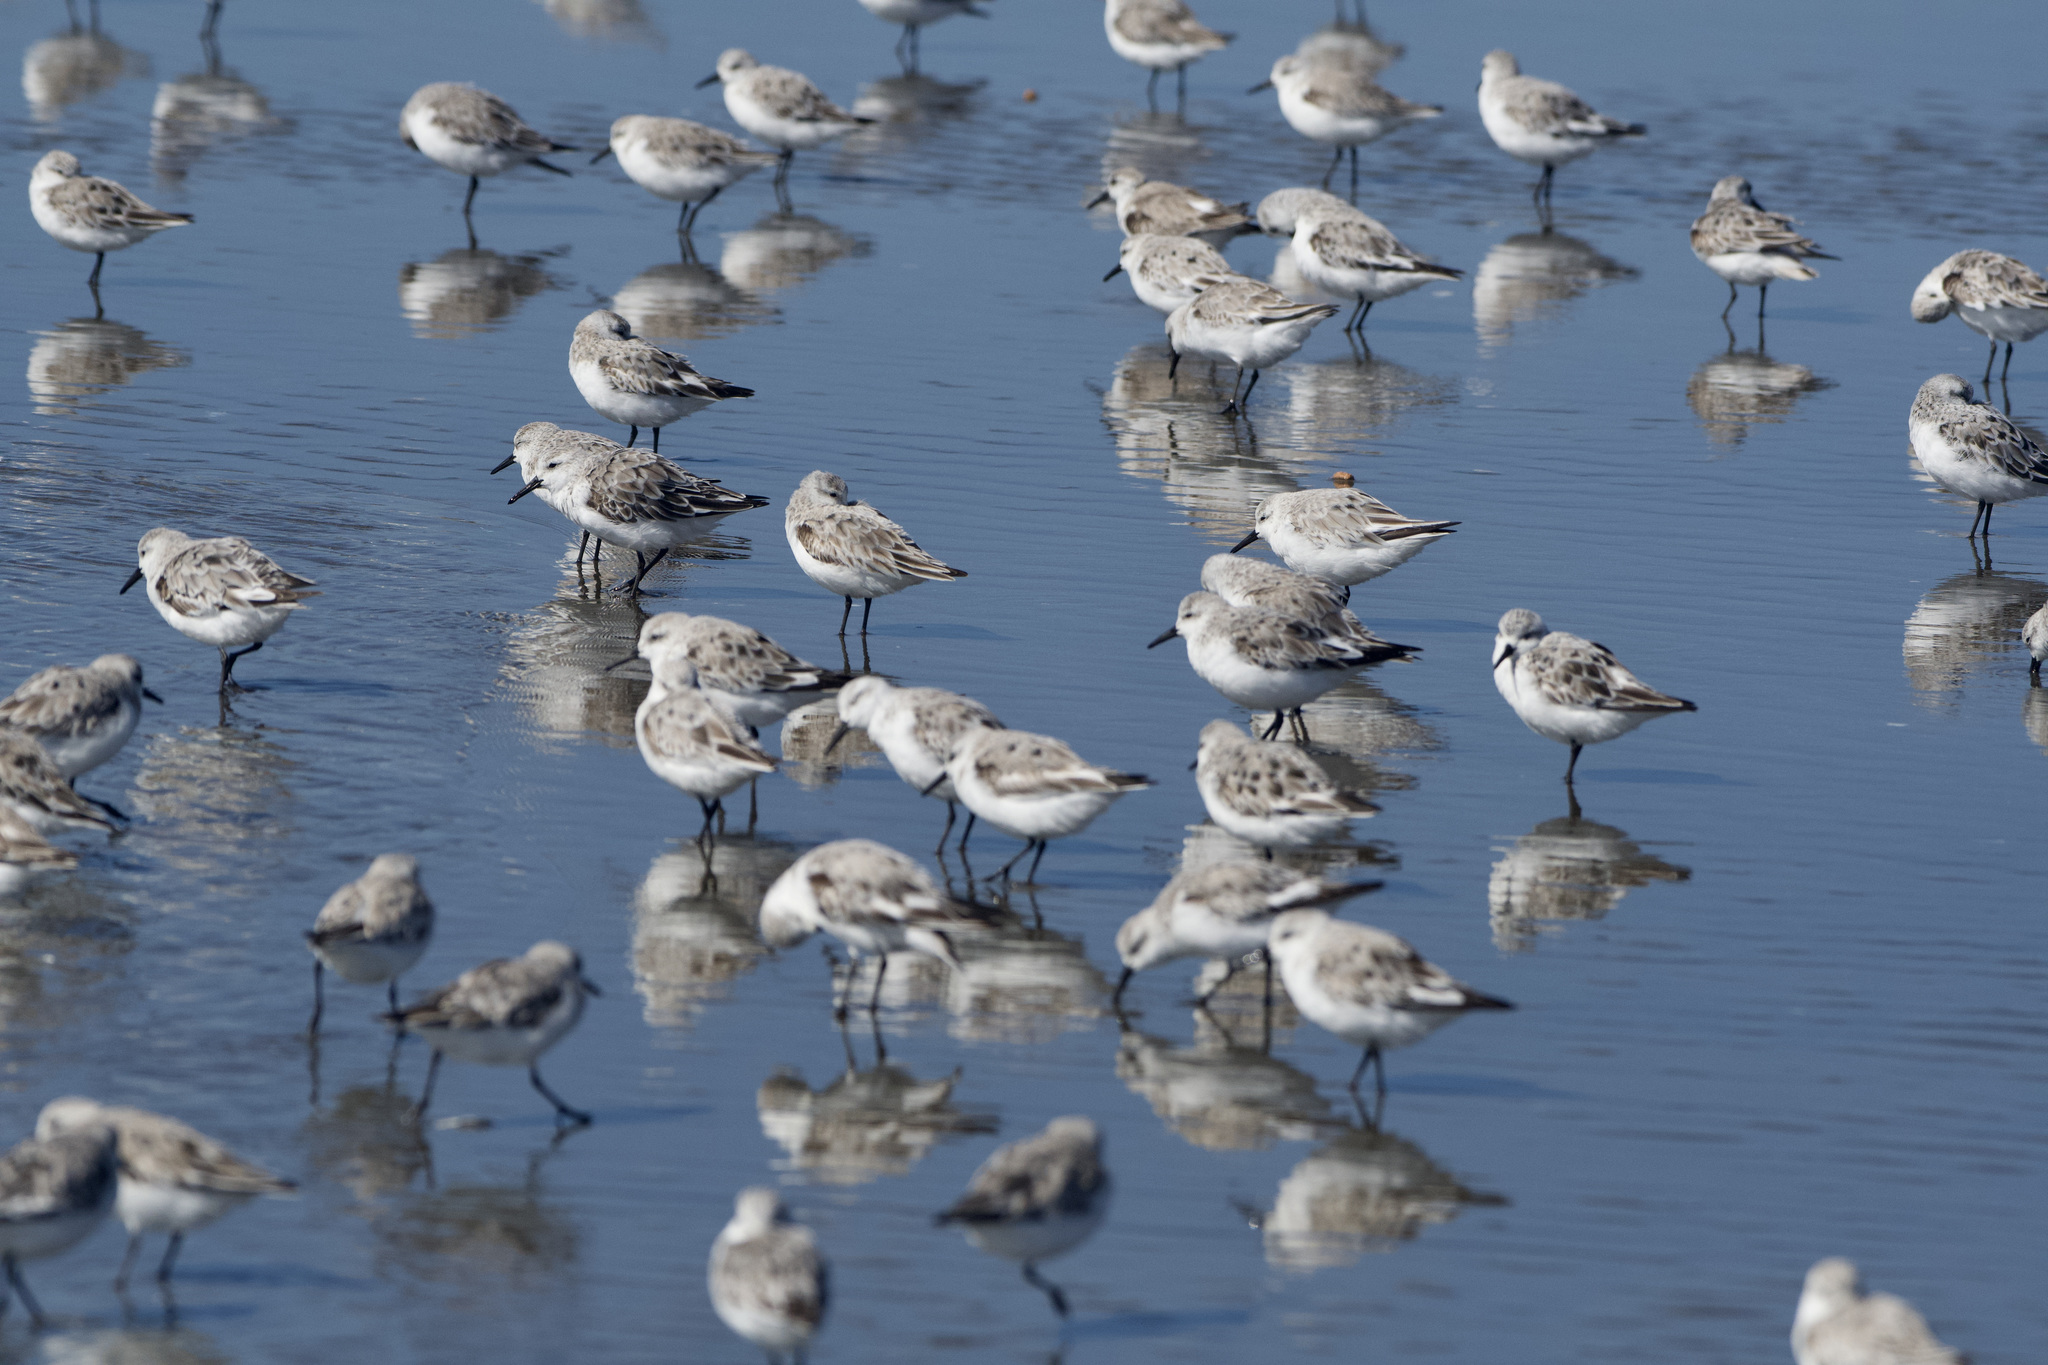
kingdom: Animalia
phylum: Chordata
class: Aves
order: Charadriiformes
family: Scolopacidae
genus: Calidris
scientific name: Calidris alba
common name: Sanderling
